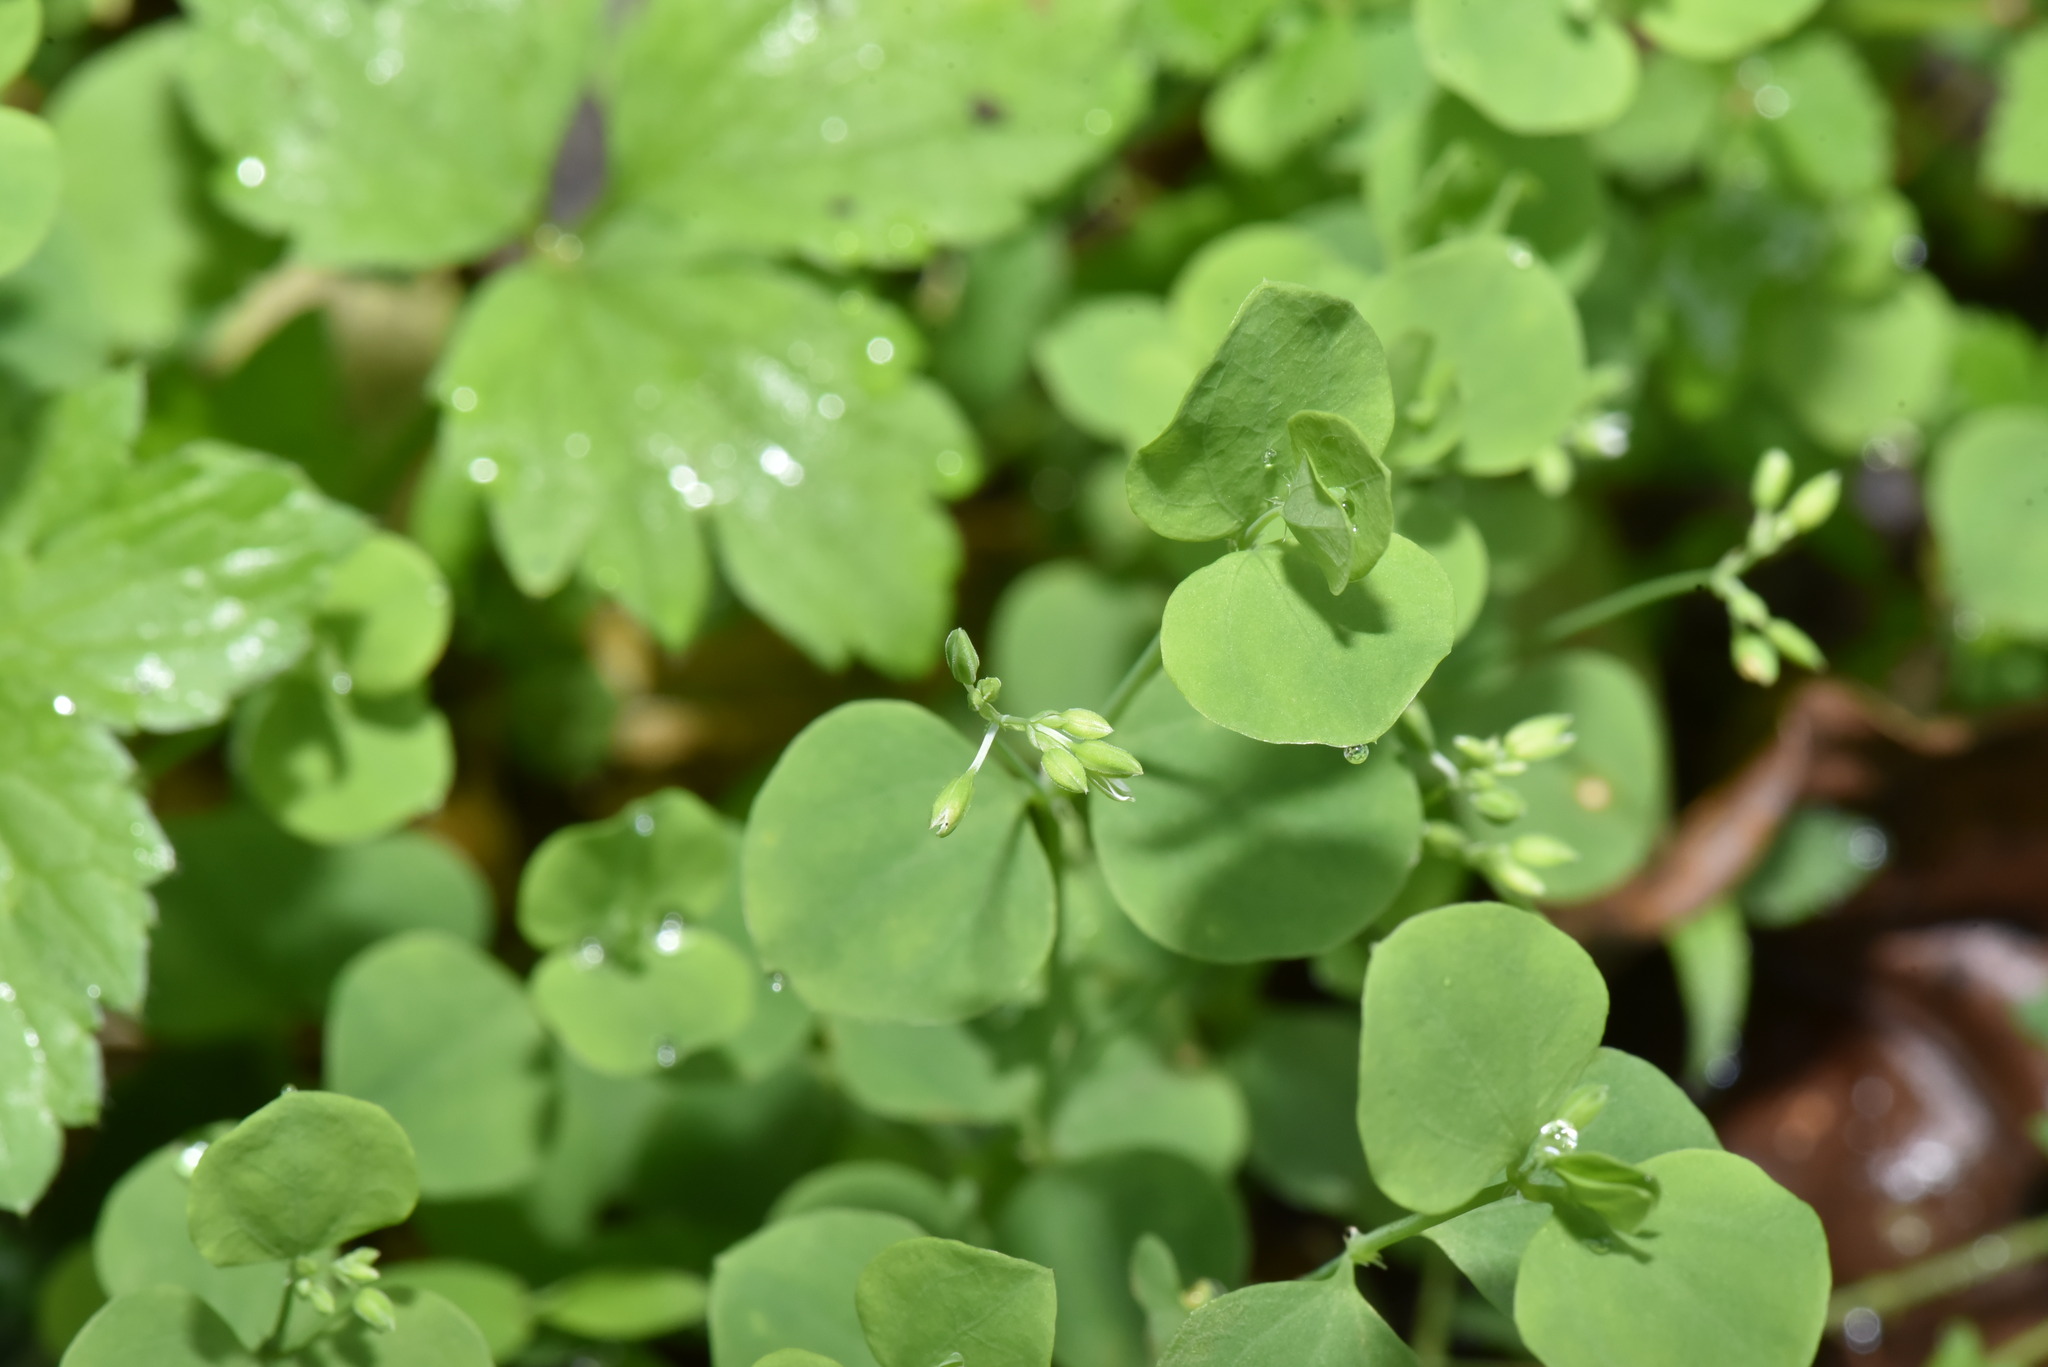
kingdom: Plantae
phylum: Tracheophyta
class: Magnoliopsida
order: Caryophyllales
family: Caryophyllaceae
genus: Drymaria
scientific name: Drymaria cordata
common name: Whitesnow
